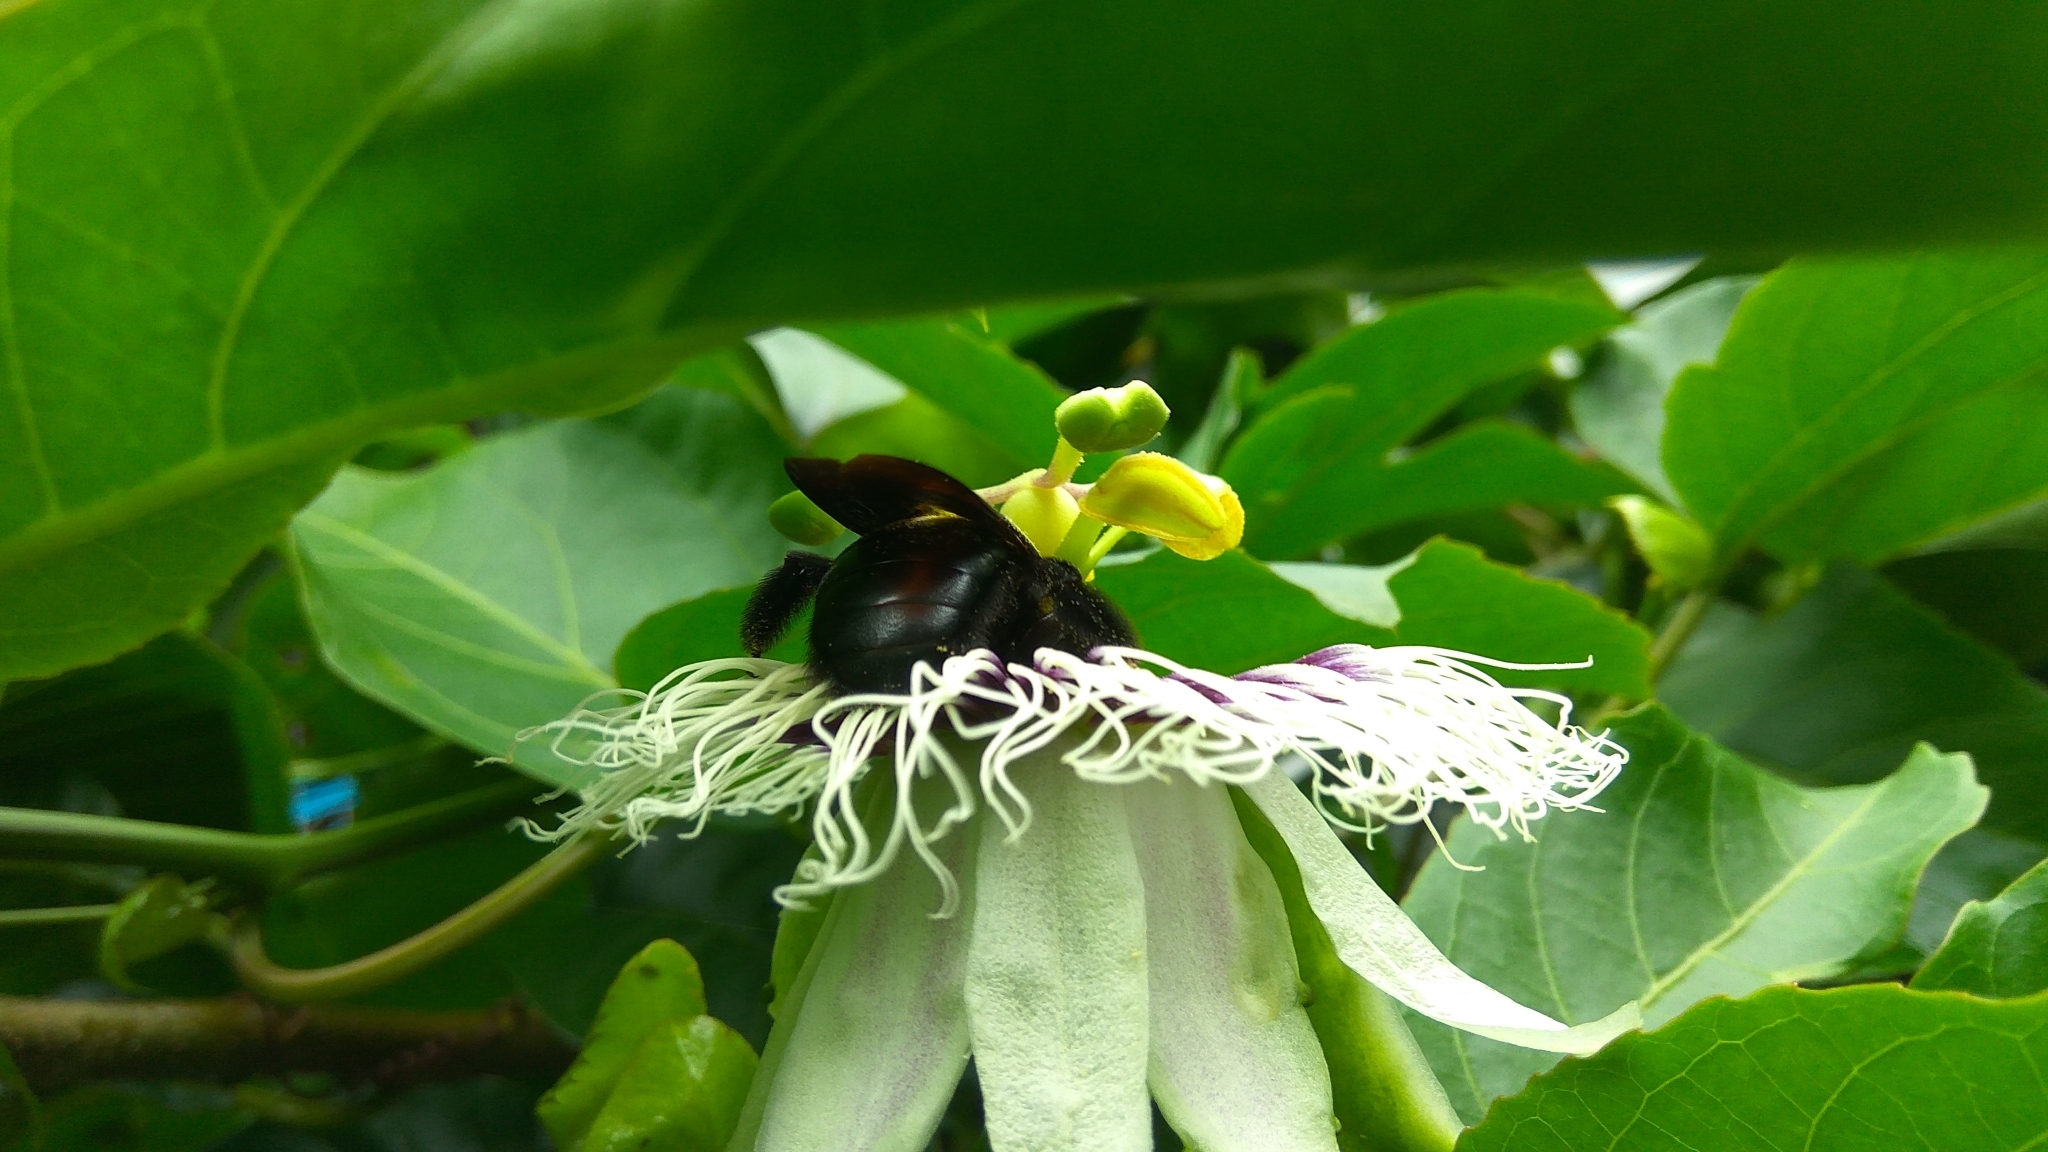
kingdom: Animalia
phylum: Arthropoda
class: Insecta
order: Hymenoptera
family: Apidae
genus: Xylocopa
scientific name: Xylocopa ruficornis
